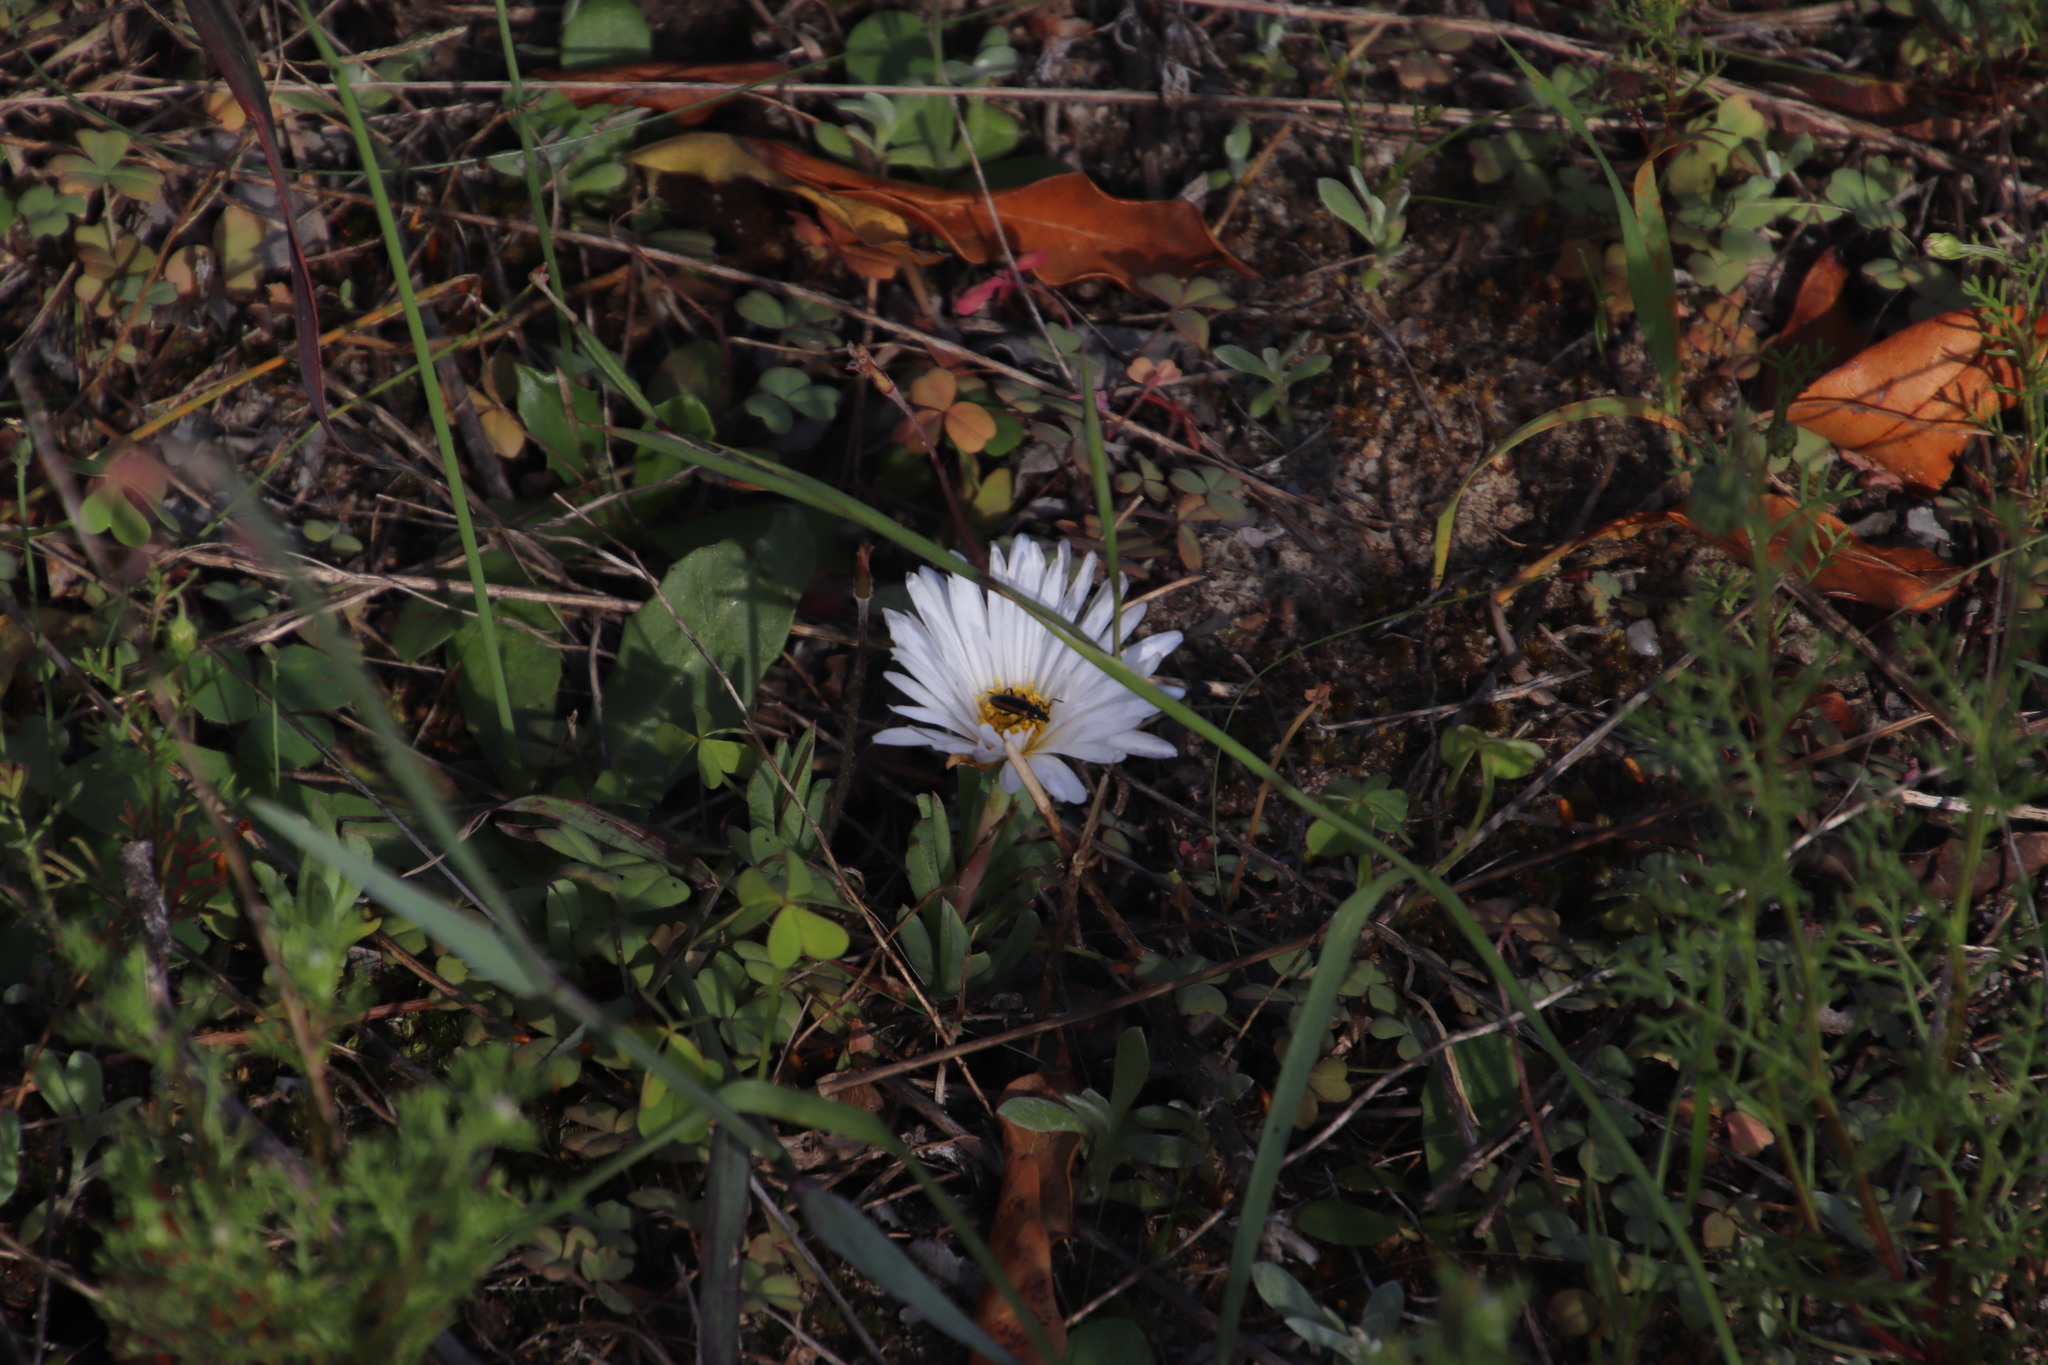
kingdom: Plantae
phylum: Tracheophyta
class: Magnoliopsida
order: Caryophyllales
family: Aizoaceae
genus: Lampranthus
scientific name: Lampranthus reptans
